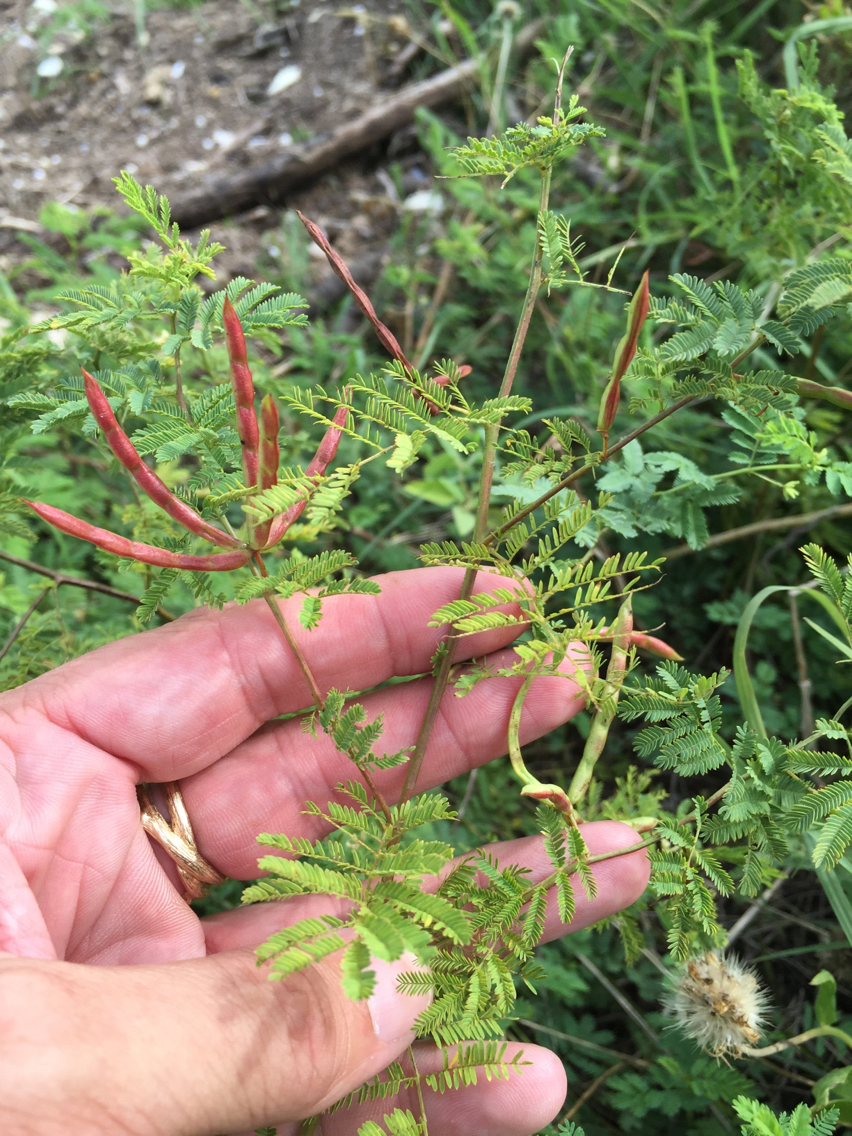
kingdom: Plantae
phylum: Tracheophyta
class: Magnoliopsida
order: Fabales
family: Fabaceae
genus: Desmanthus
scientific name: Desmanthus leptolobus
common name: Prairie-mimosa
